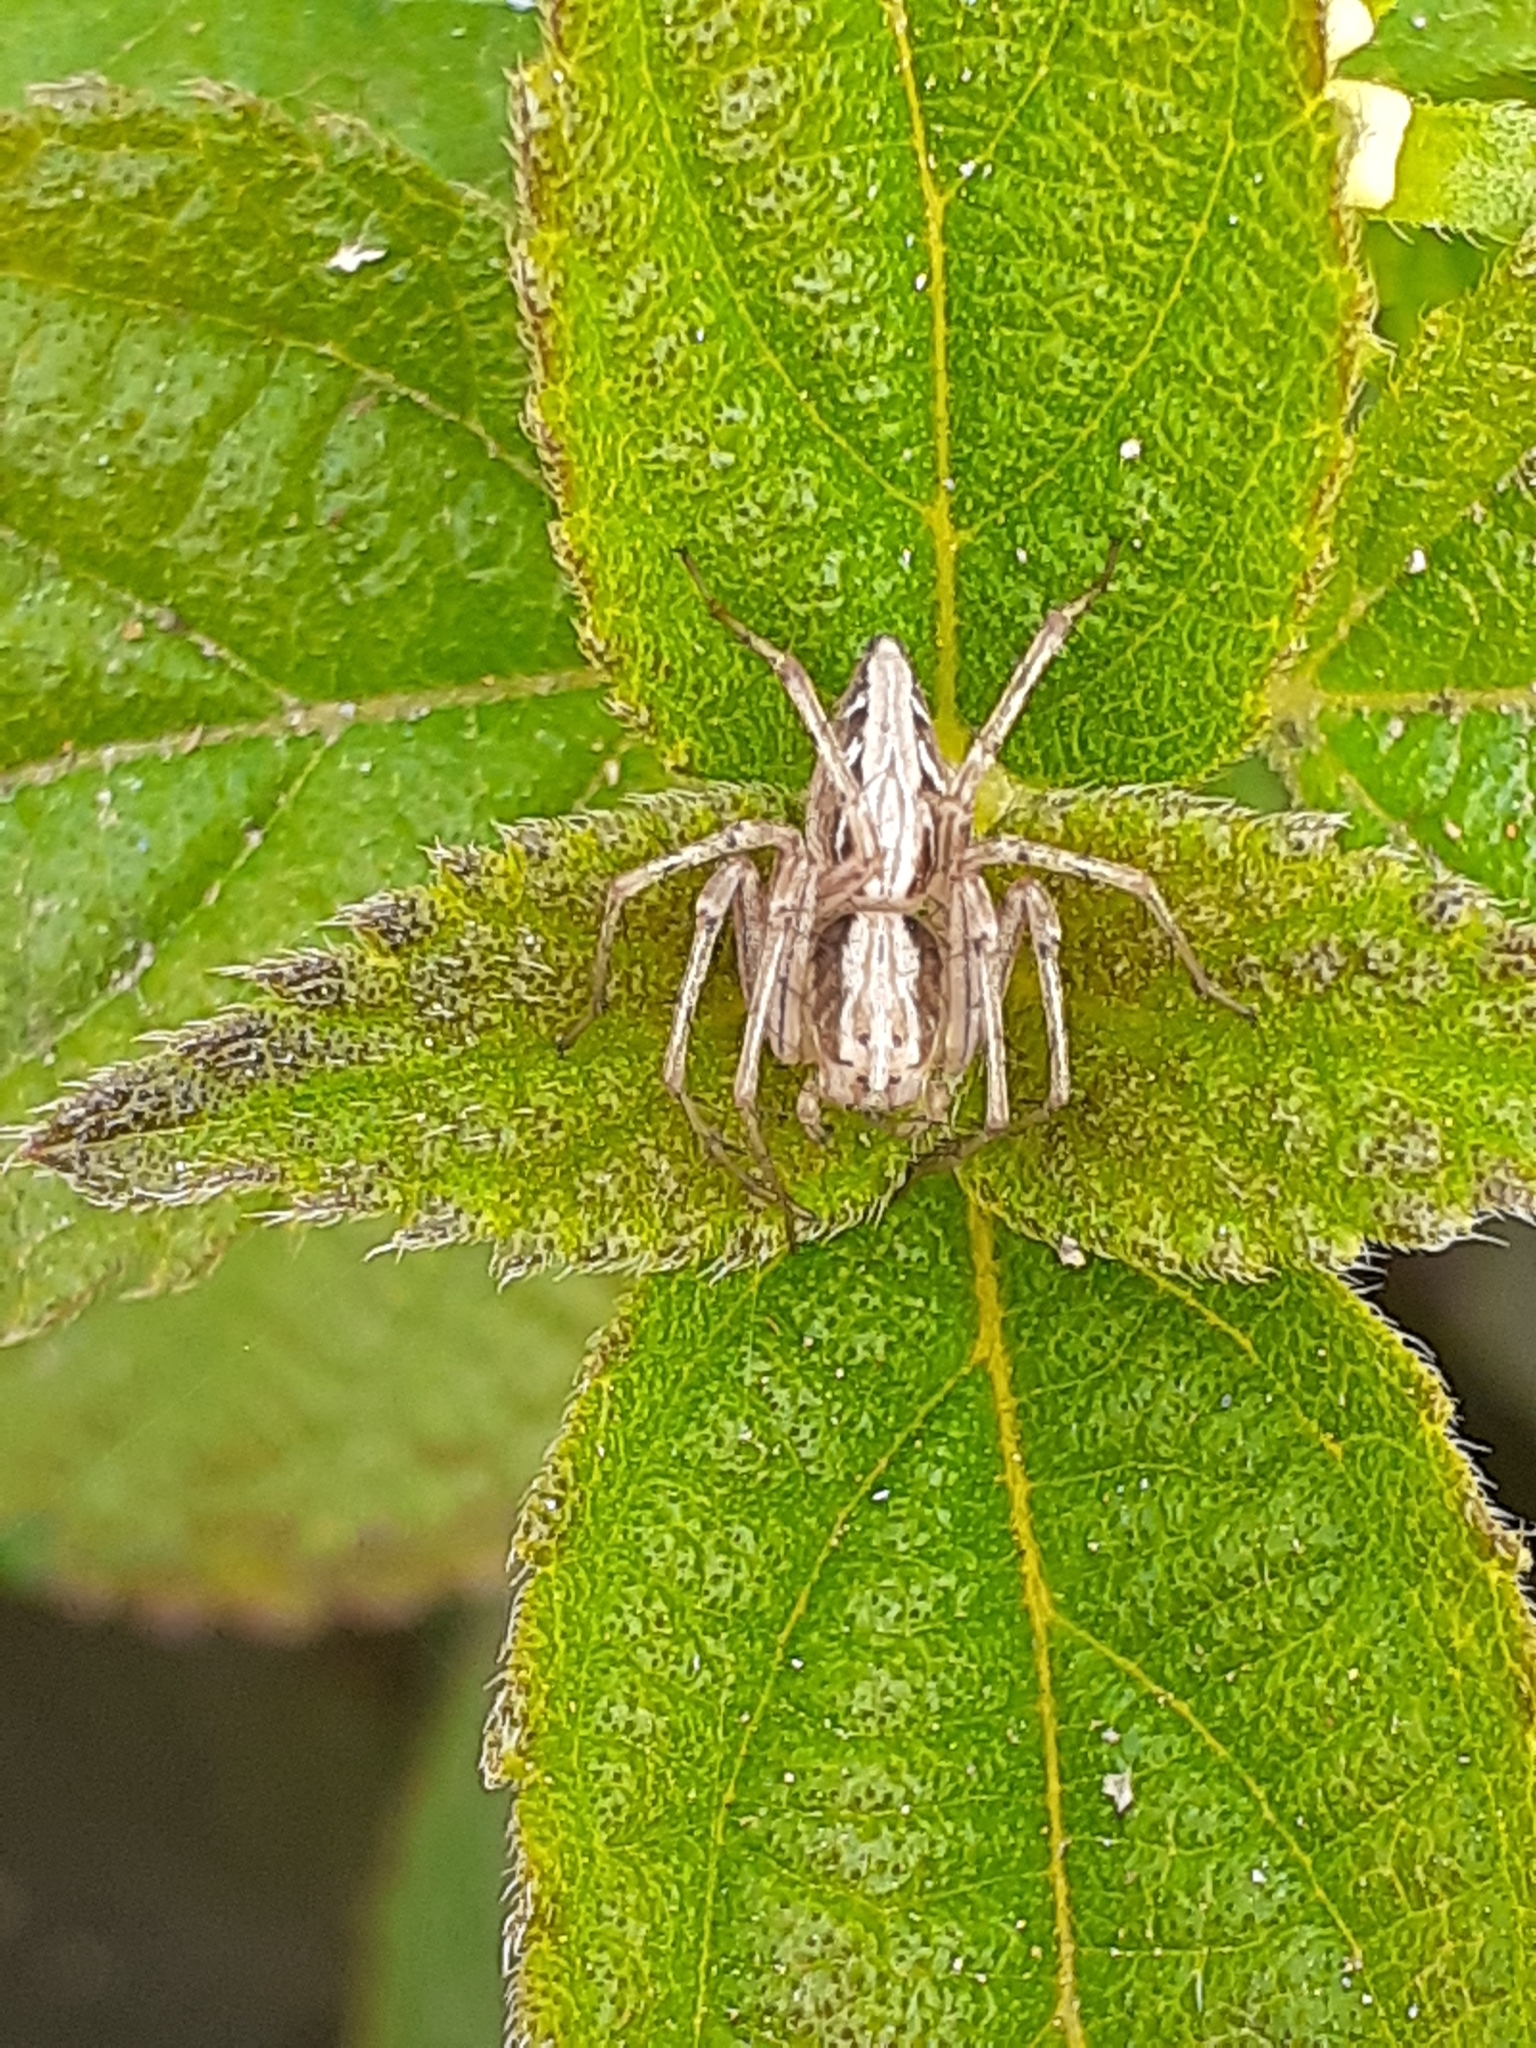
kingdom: Animalia
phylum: Arthropoda
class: Arachnida
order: Araneae
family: Oxyopidae
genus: Oxyopes
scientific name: Oxyopes sertatus
